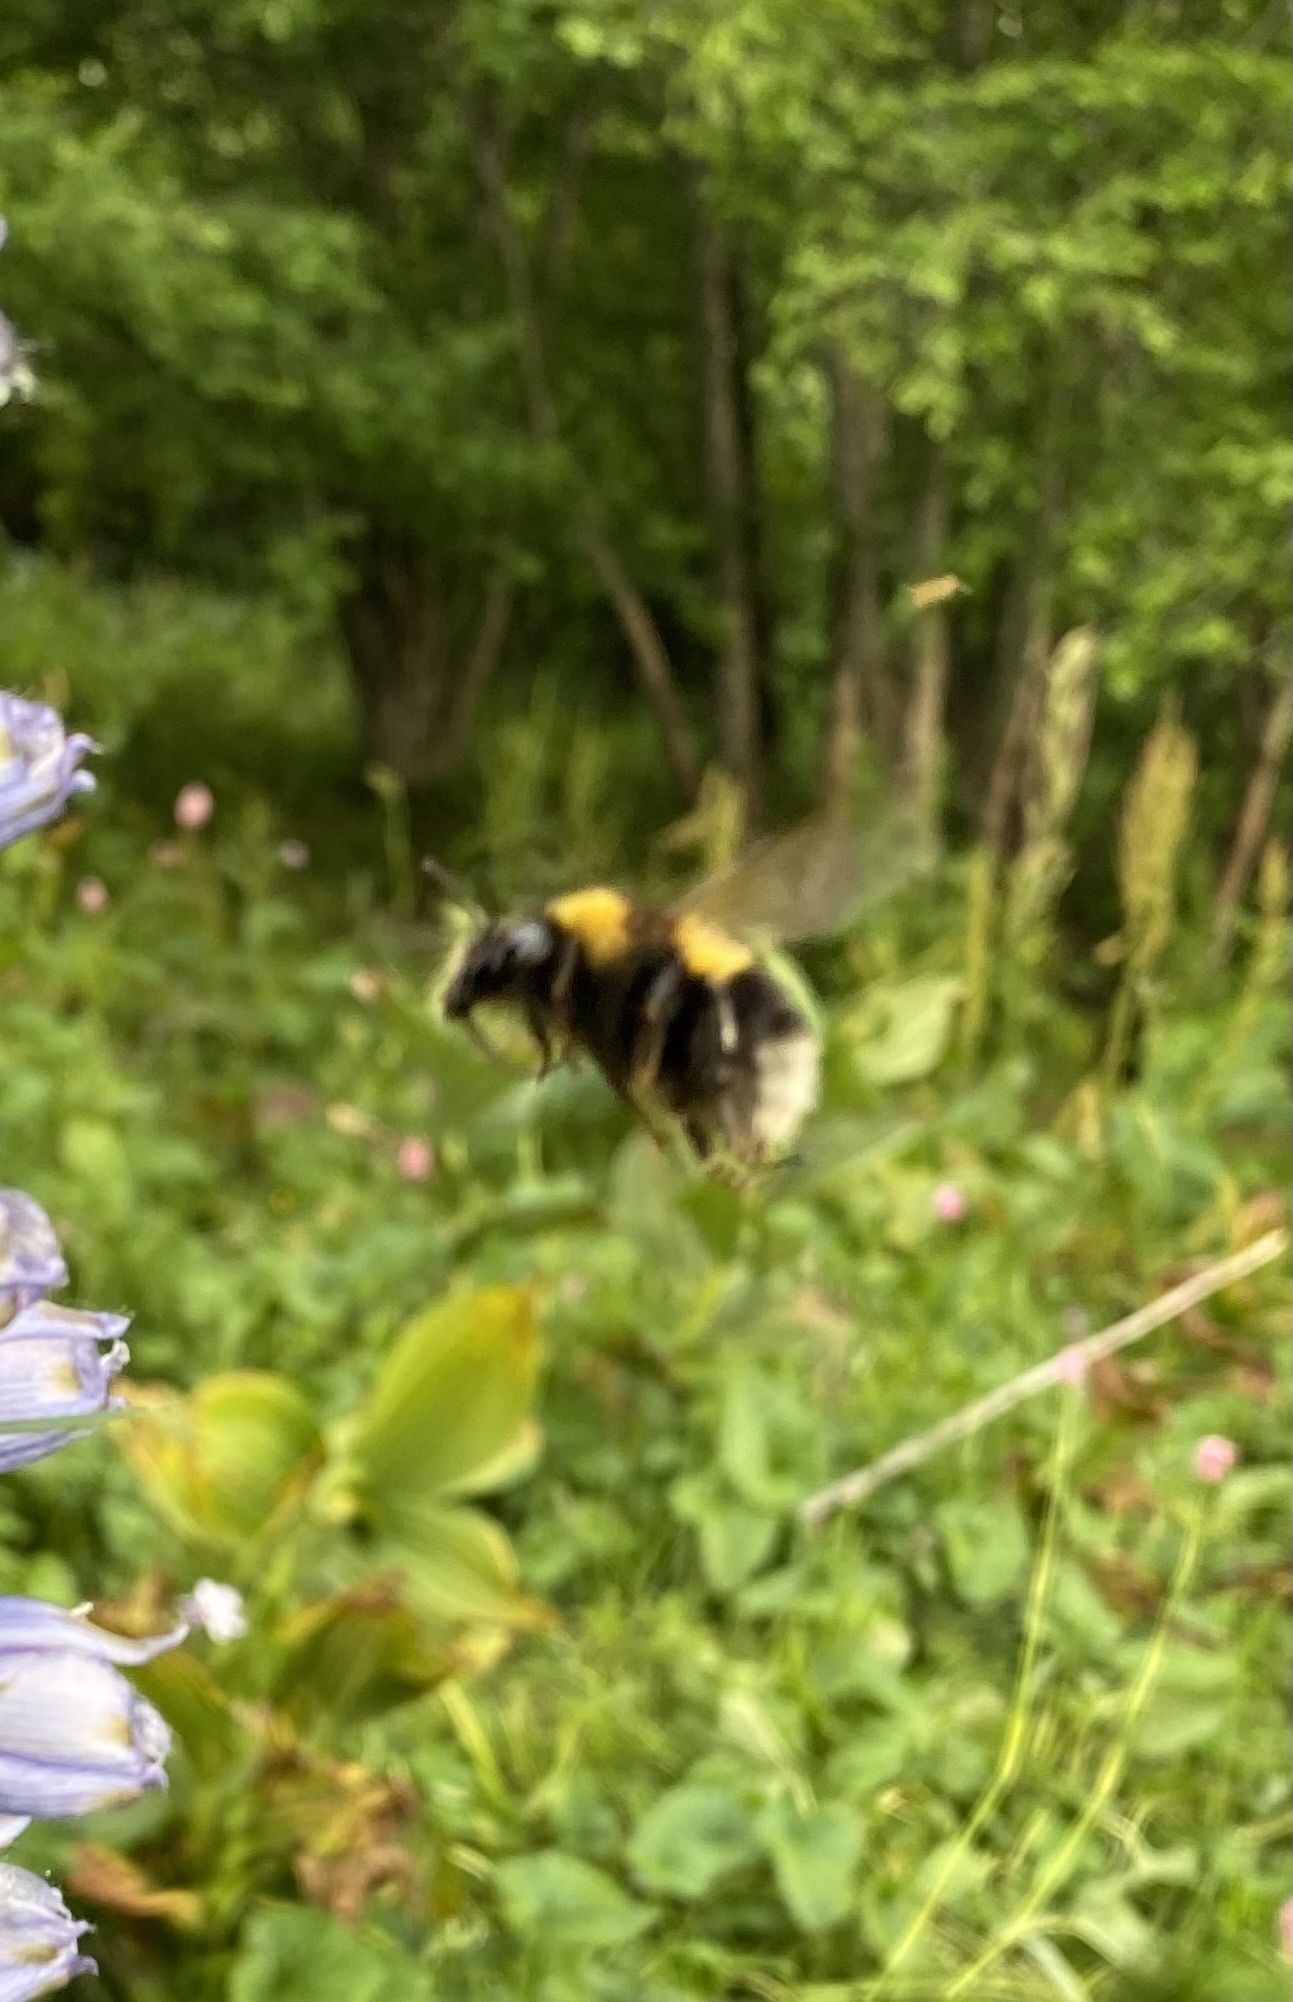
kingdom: Animalia
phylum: Arthropoda
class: Insecta
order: Hymenoptera
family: Apidae
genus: Megabombus
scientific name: Megabombus
